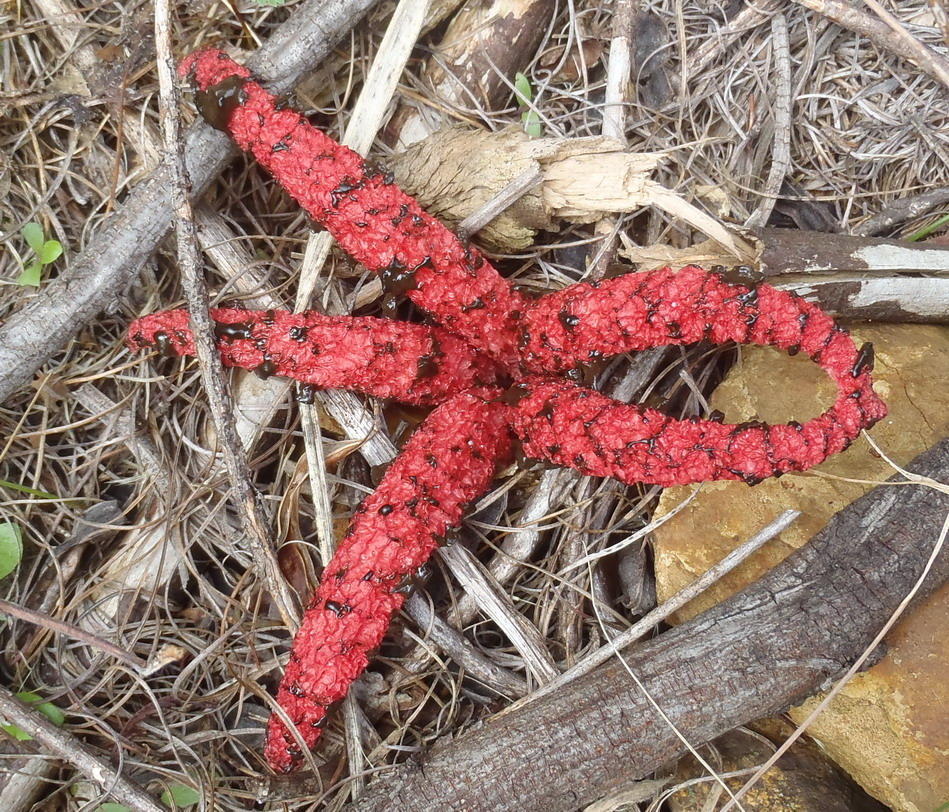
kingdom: Fungi
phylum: Basidiomycota
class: Agaricomycetes
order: Phallales
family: Phallaceae
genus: Clathrus
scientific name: Clathrus archeri
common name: Devil's fingers
